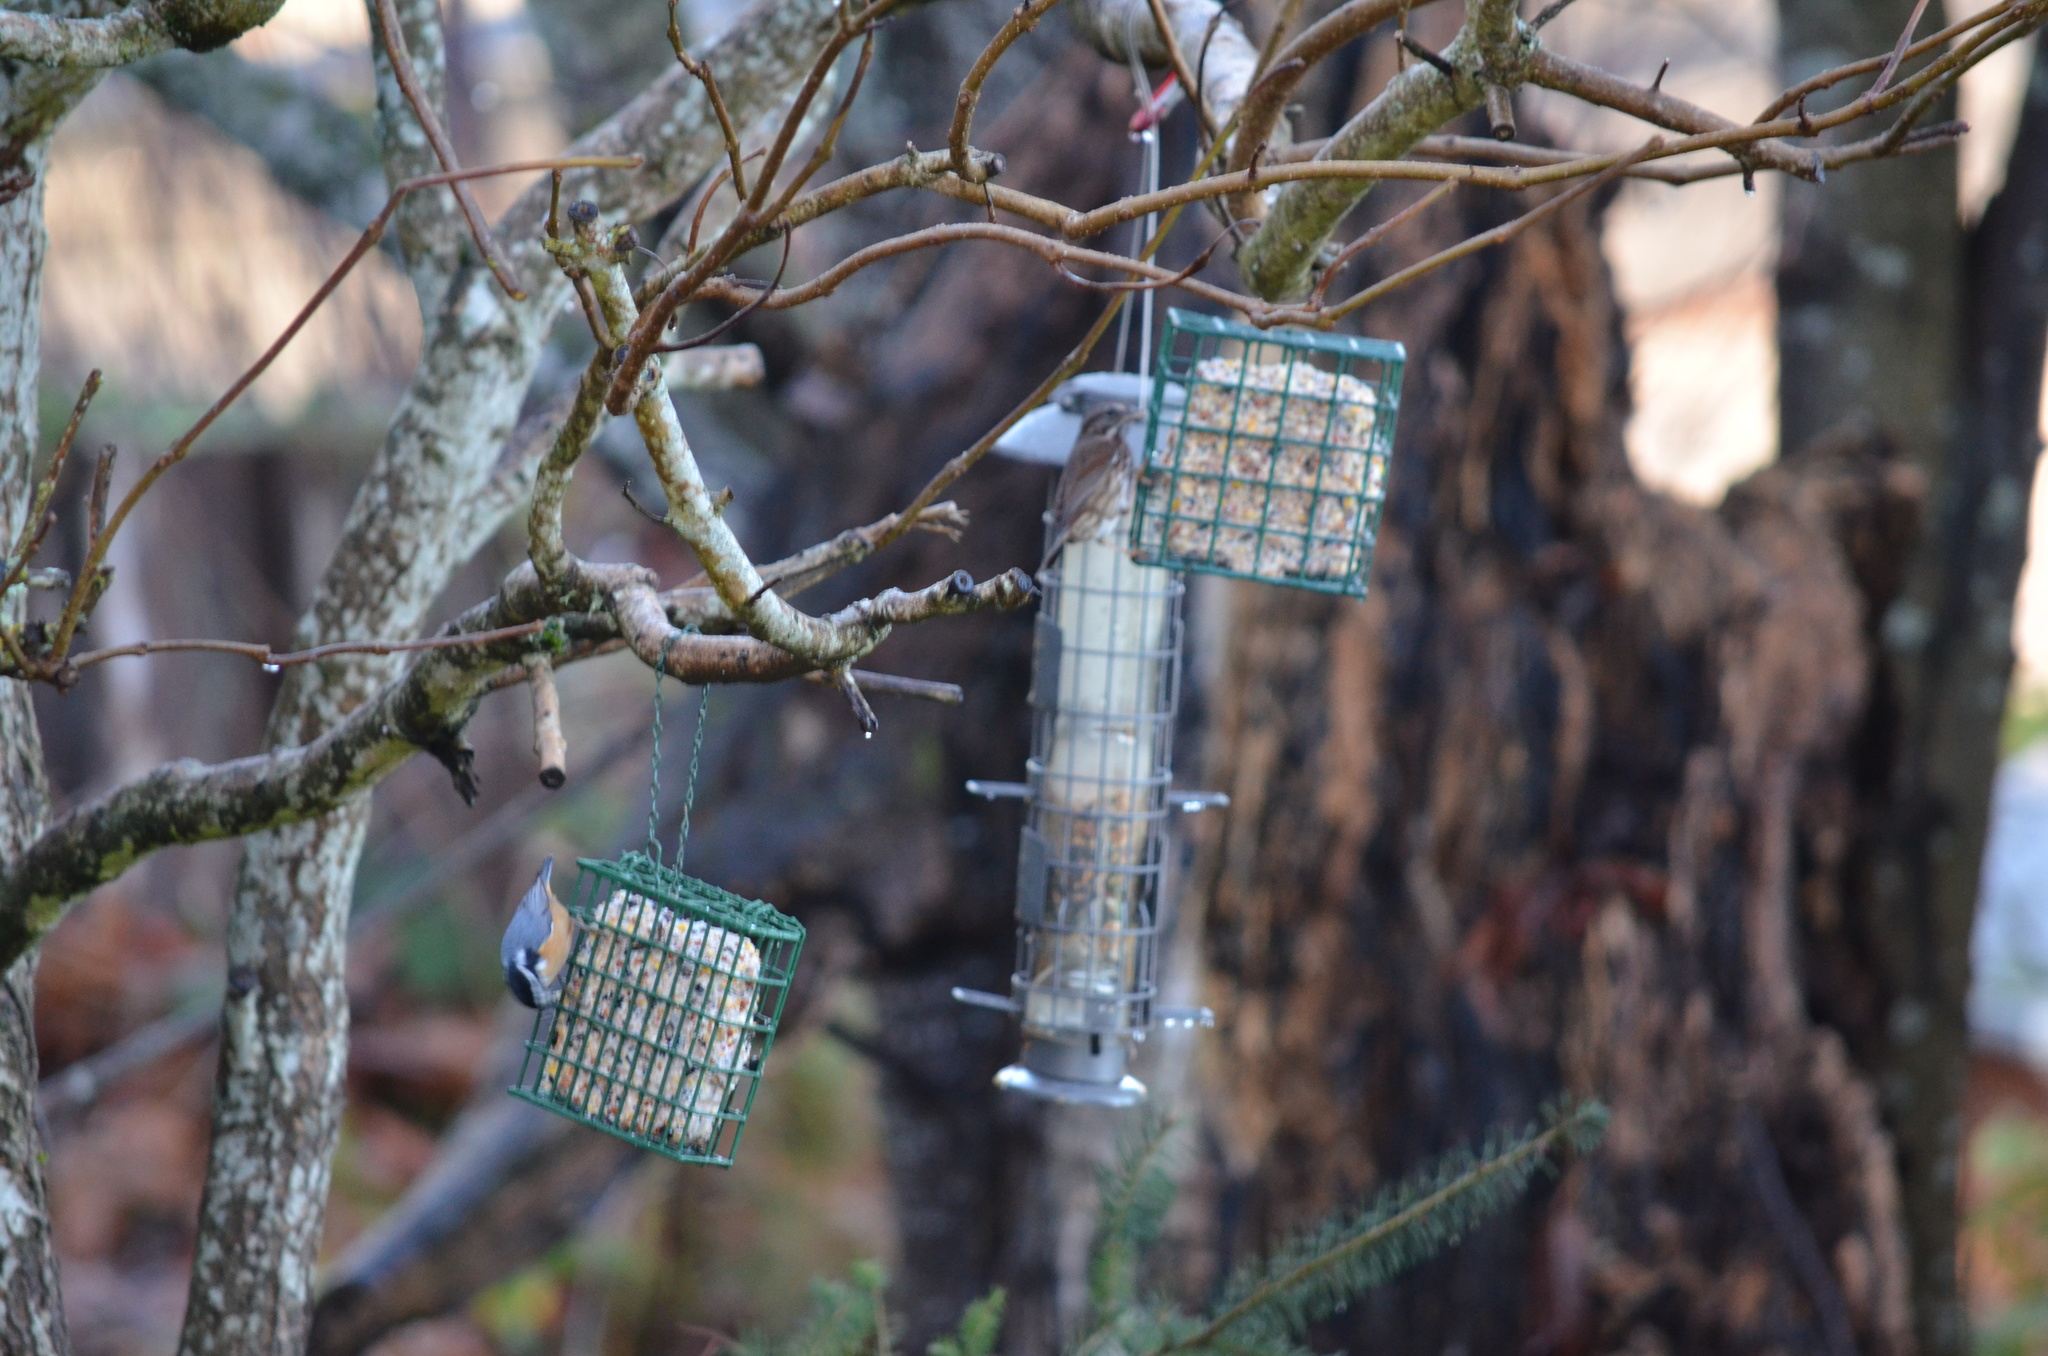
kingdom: Animalia
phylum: Chordata
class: Aves
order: Passeriformes
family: Passerellidae
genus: Melospiza
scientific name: Melospiza melodia
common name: Song sparrow
